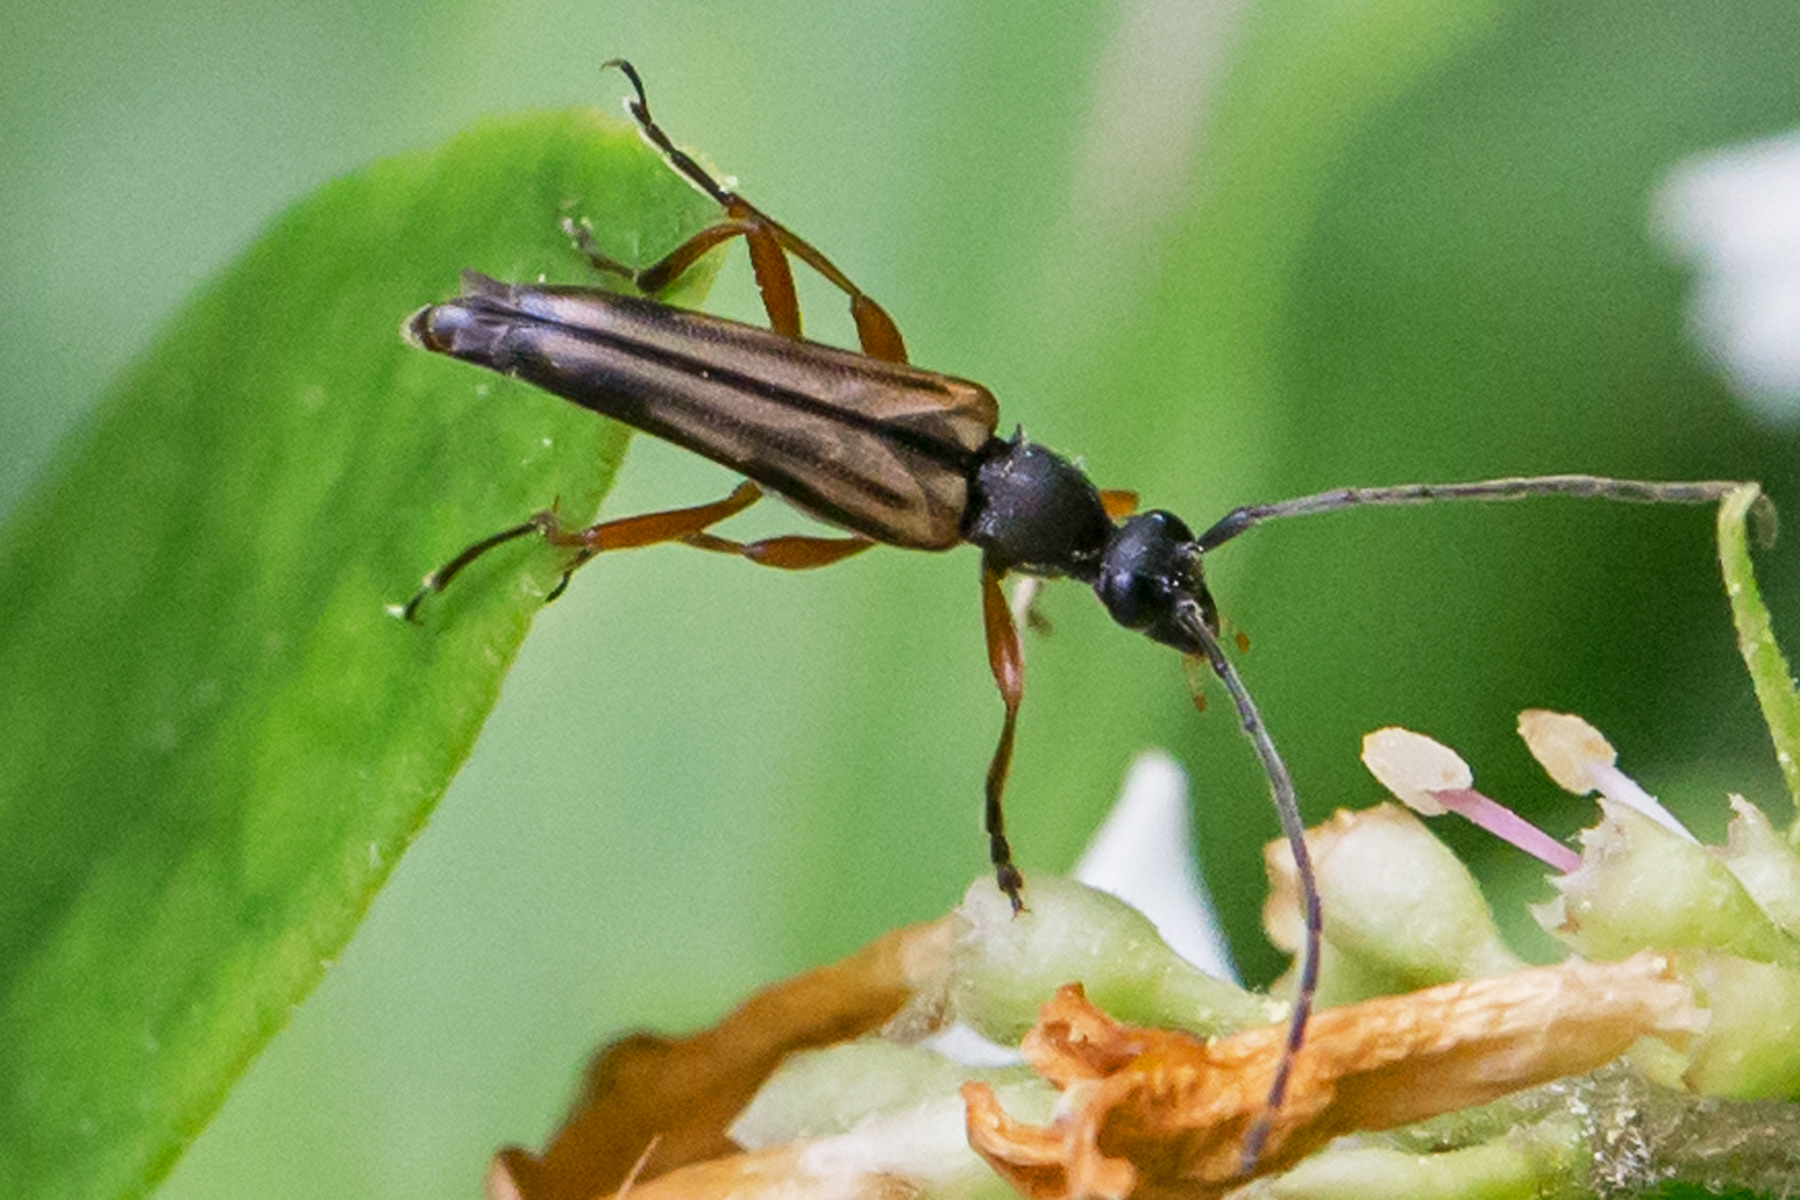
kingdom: Animalia
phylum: Arthropoda
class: Insecta
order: Coleoptera
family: Cerambycidae
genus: Analeptura
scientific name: Analeptura lineola
